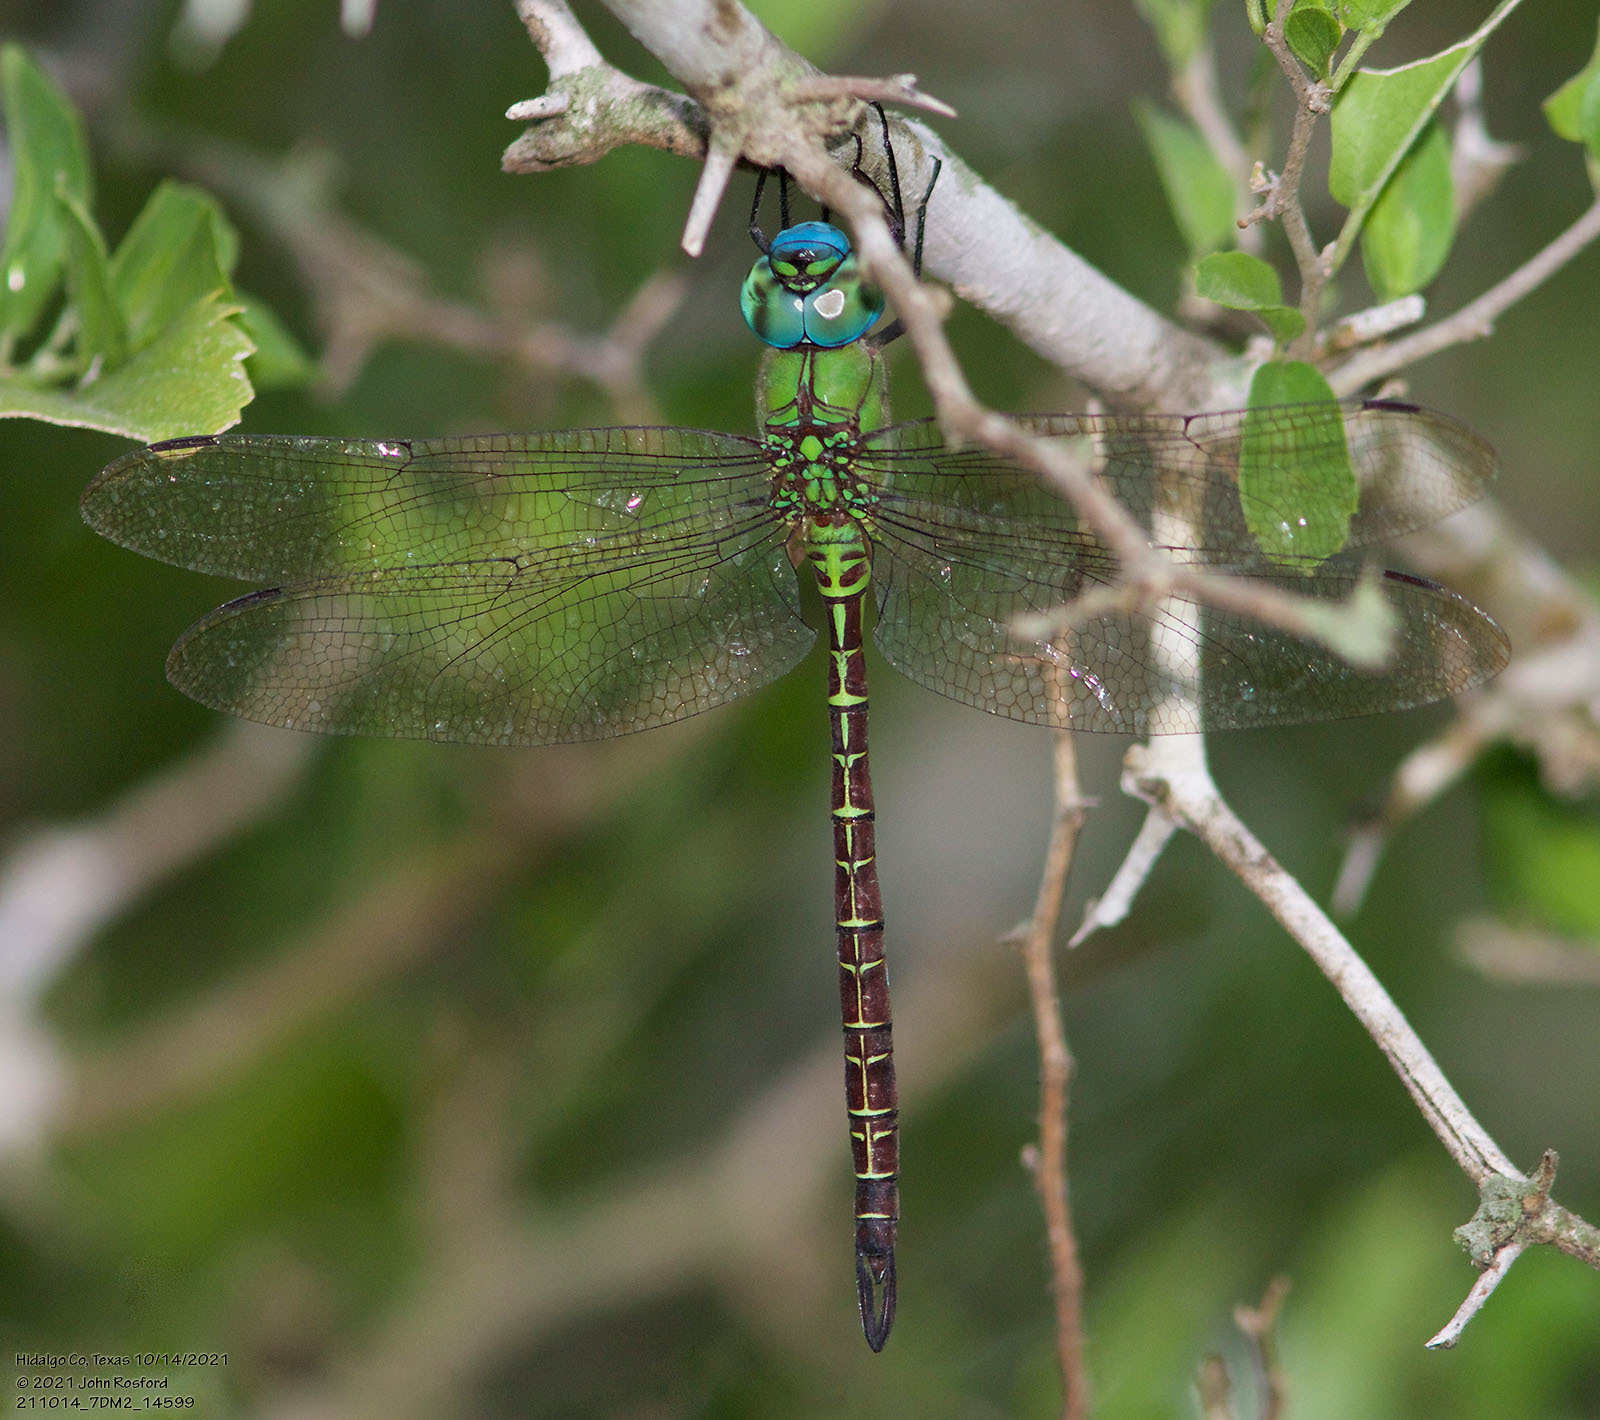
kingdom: Animalia
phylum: Arthropoda
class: Insecta
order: Odonata
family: Aeshnidae
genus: Coryphaeschna
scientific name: Coryphaeschna adnexa
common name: Blue-faced darner
